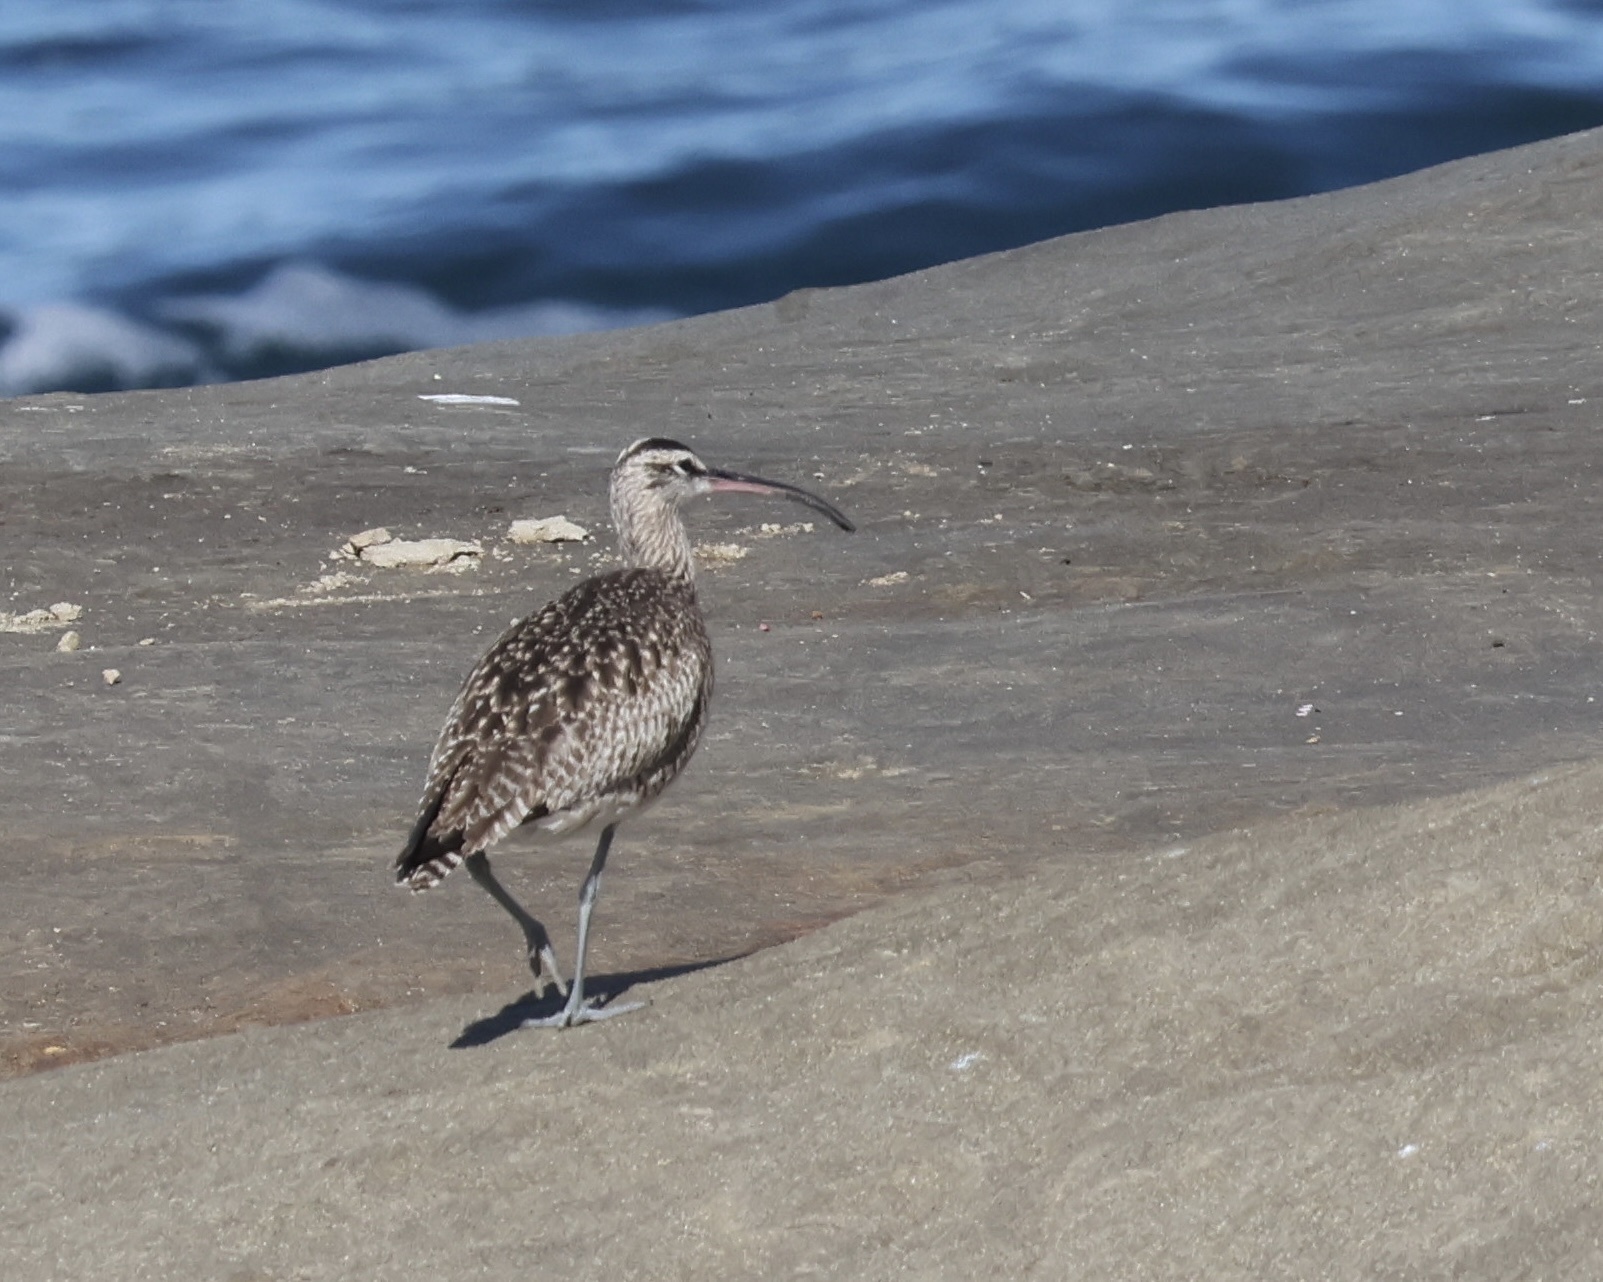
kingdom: Animalia
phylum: Chordata
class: Aves
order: Charadriiformes
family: Scolopacidae
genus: Numenius
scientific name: Numenius phaeopus
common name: Whimbrel
